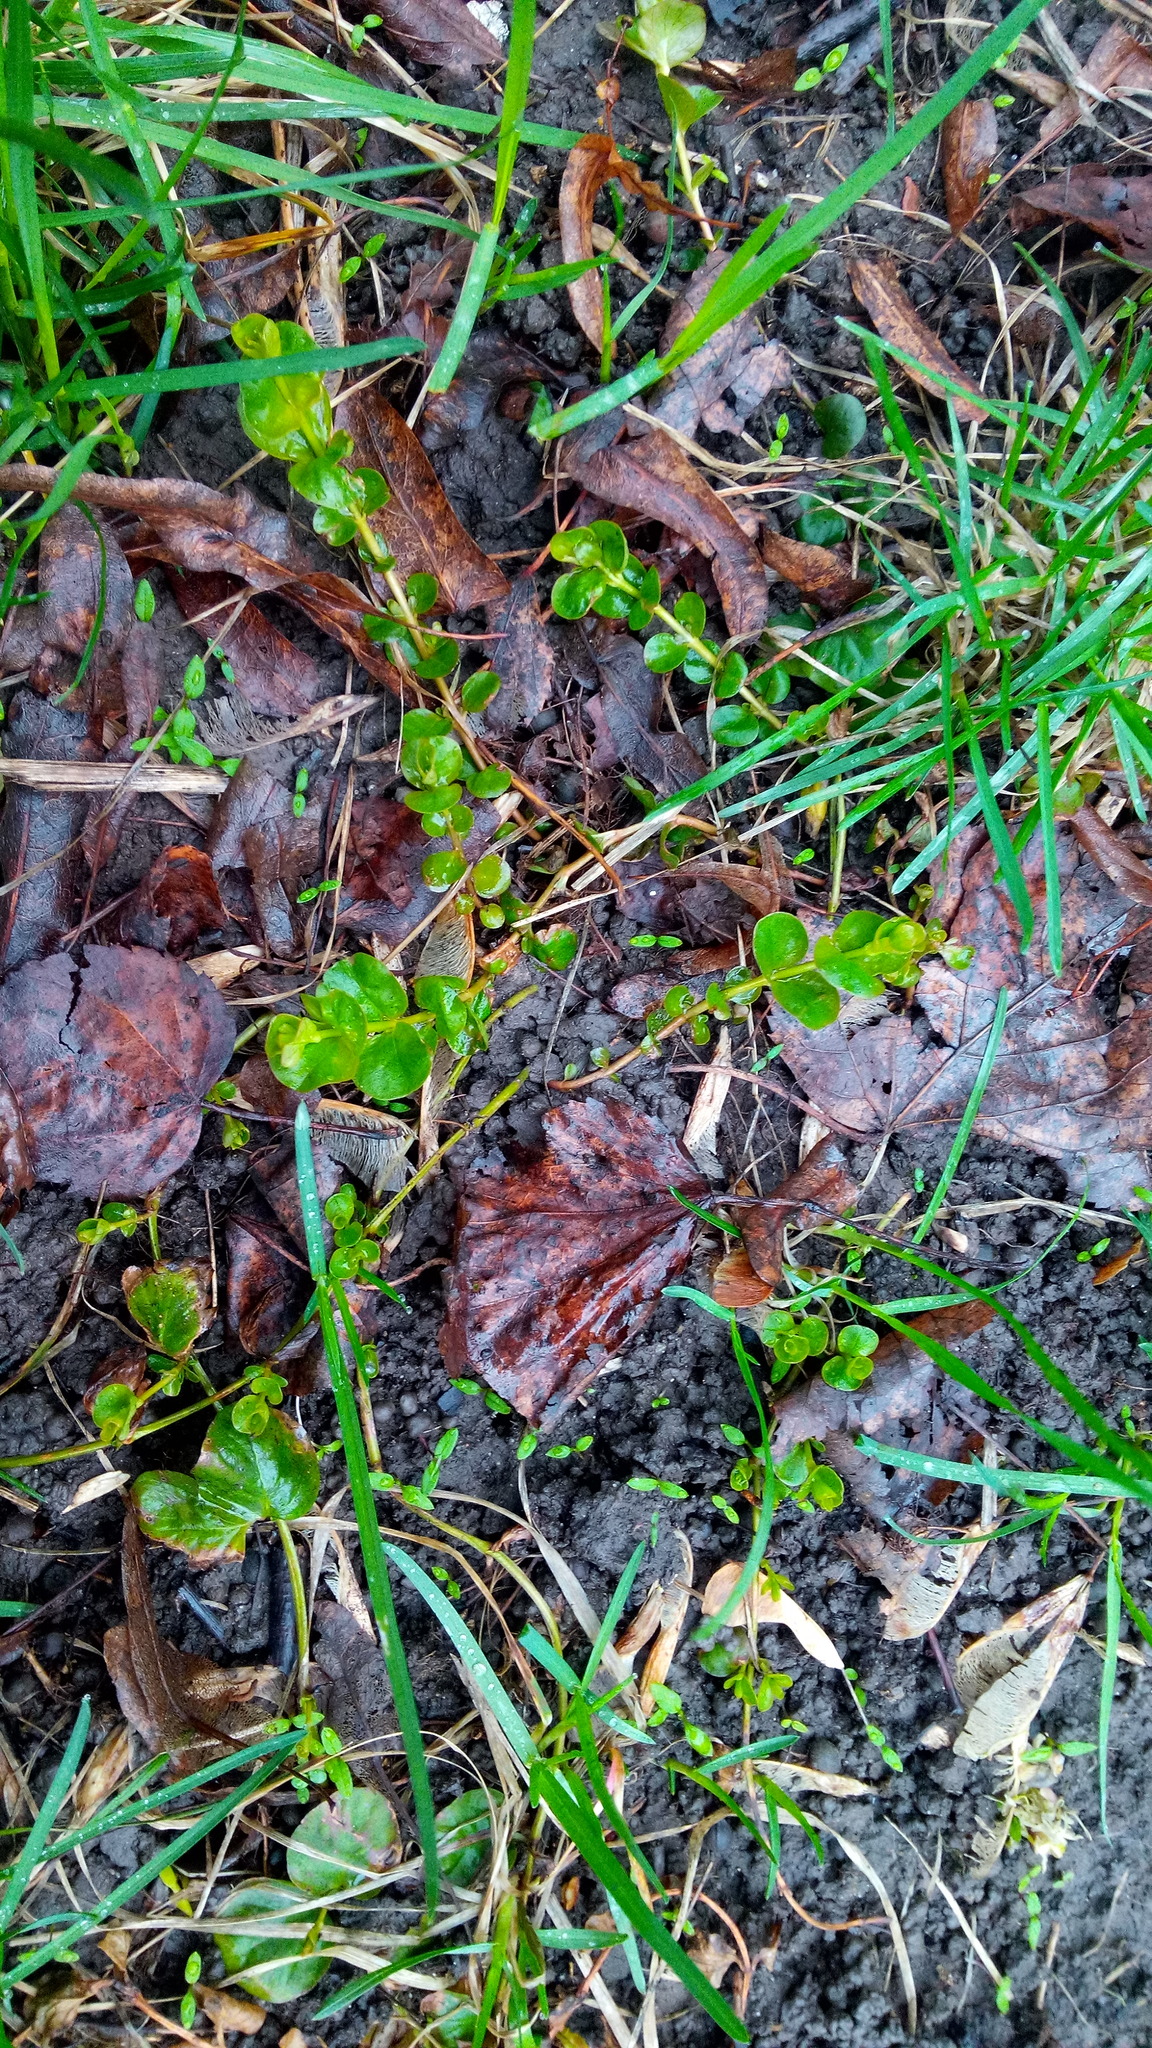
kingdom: Plantae
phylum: Tracheophyta
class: Magnoliopsida
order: Ericales
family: Primulaceae
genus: Lysimachia
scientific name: Lysimachia nummularia
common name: Moneywort
